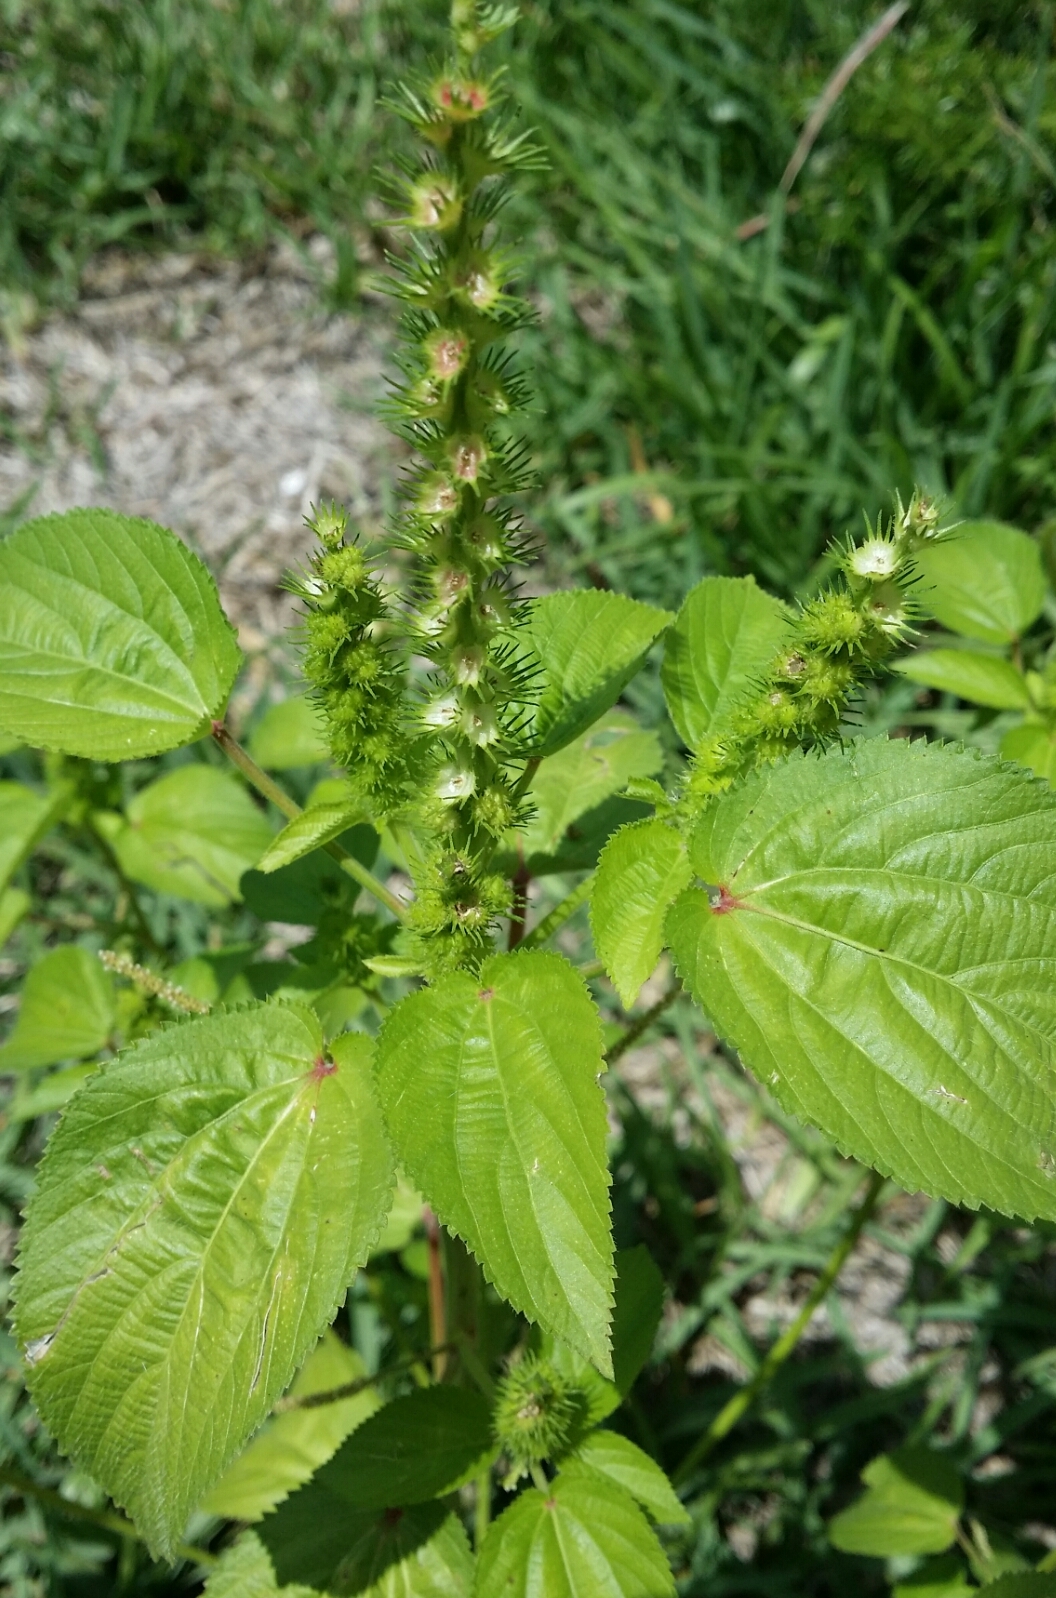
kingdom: Plantae
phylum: Tracheophyta
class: Magnoliopsida
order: Malpighiales
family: Euphorbiaceae
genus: Acalypha
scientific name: Acalypha ostryifolia
